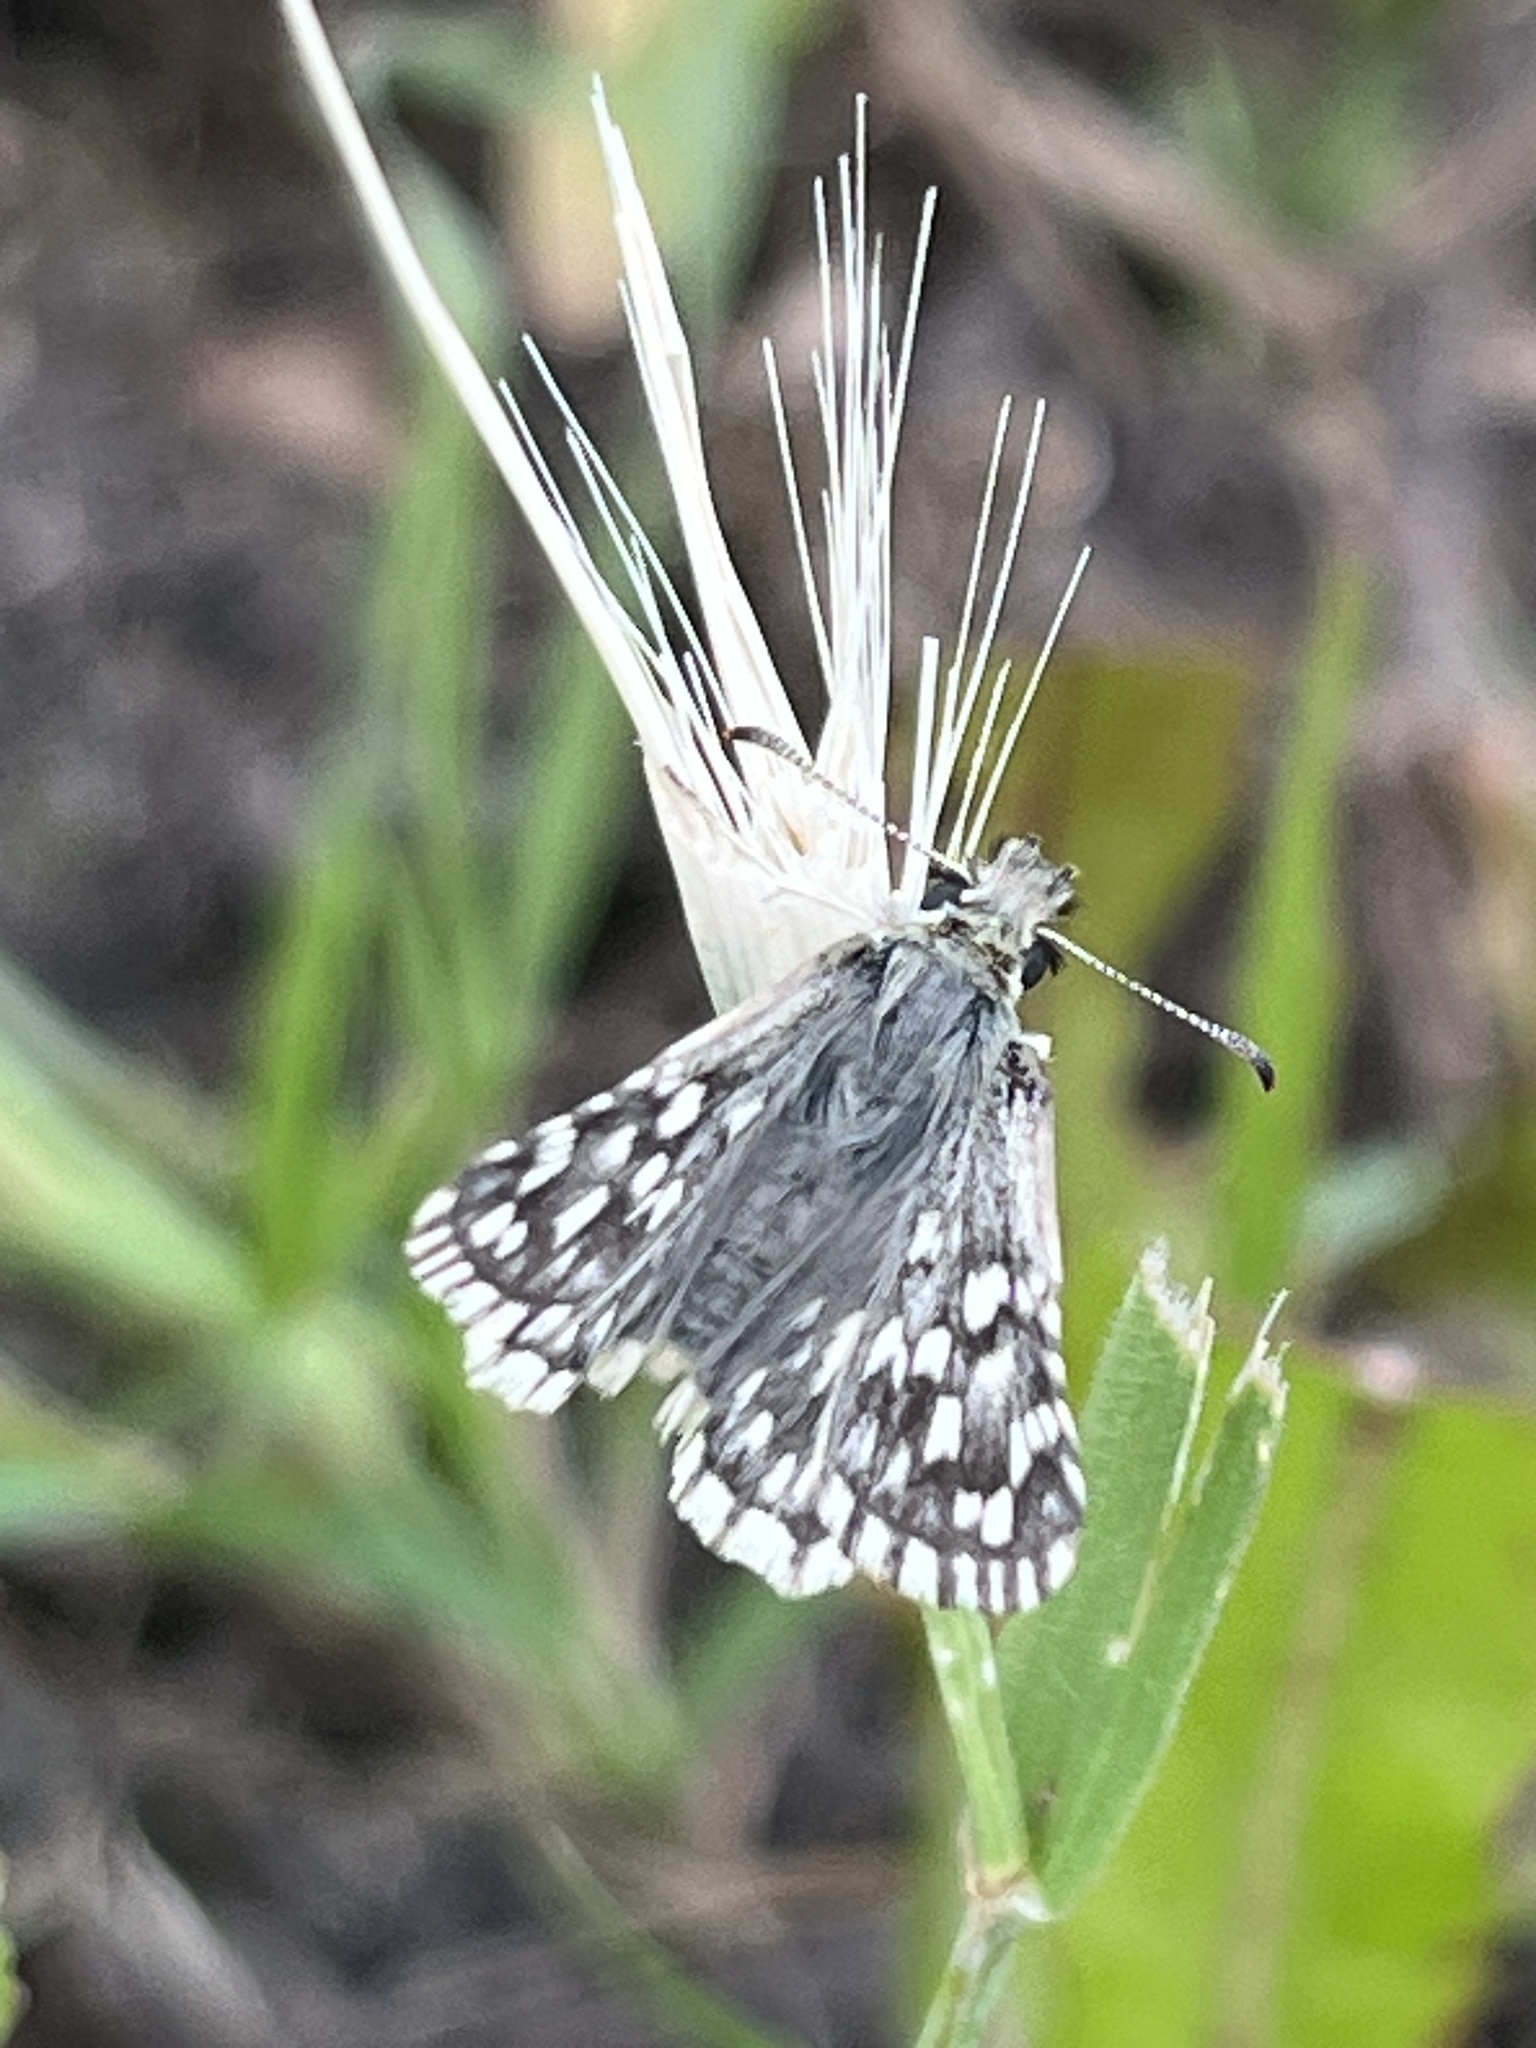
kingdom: Animalia
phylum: Arthropoda
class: Insecta
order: Lepidoptera
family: Hesperiidae
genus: Pyrgus
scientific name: Pyrgus melotis
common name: Aegean skipper
